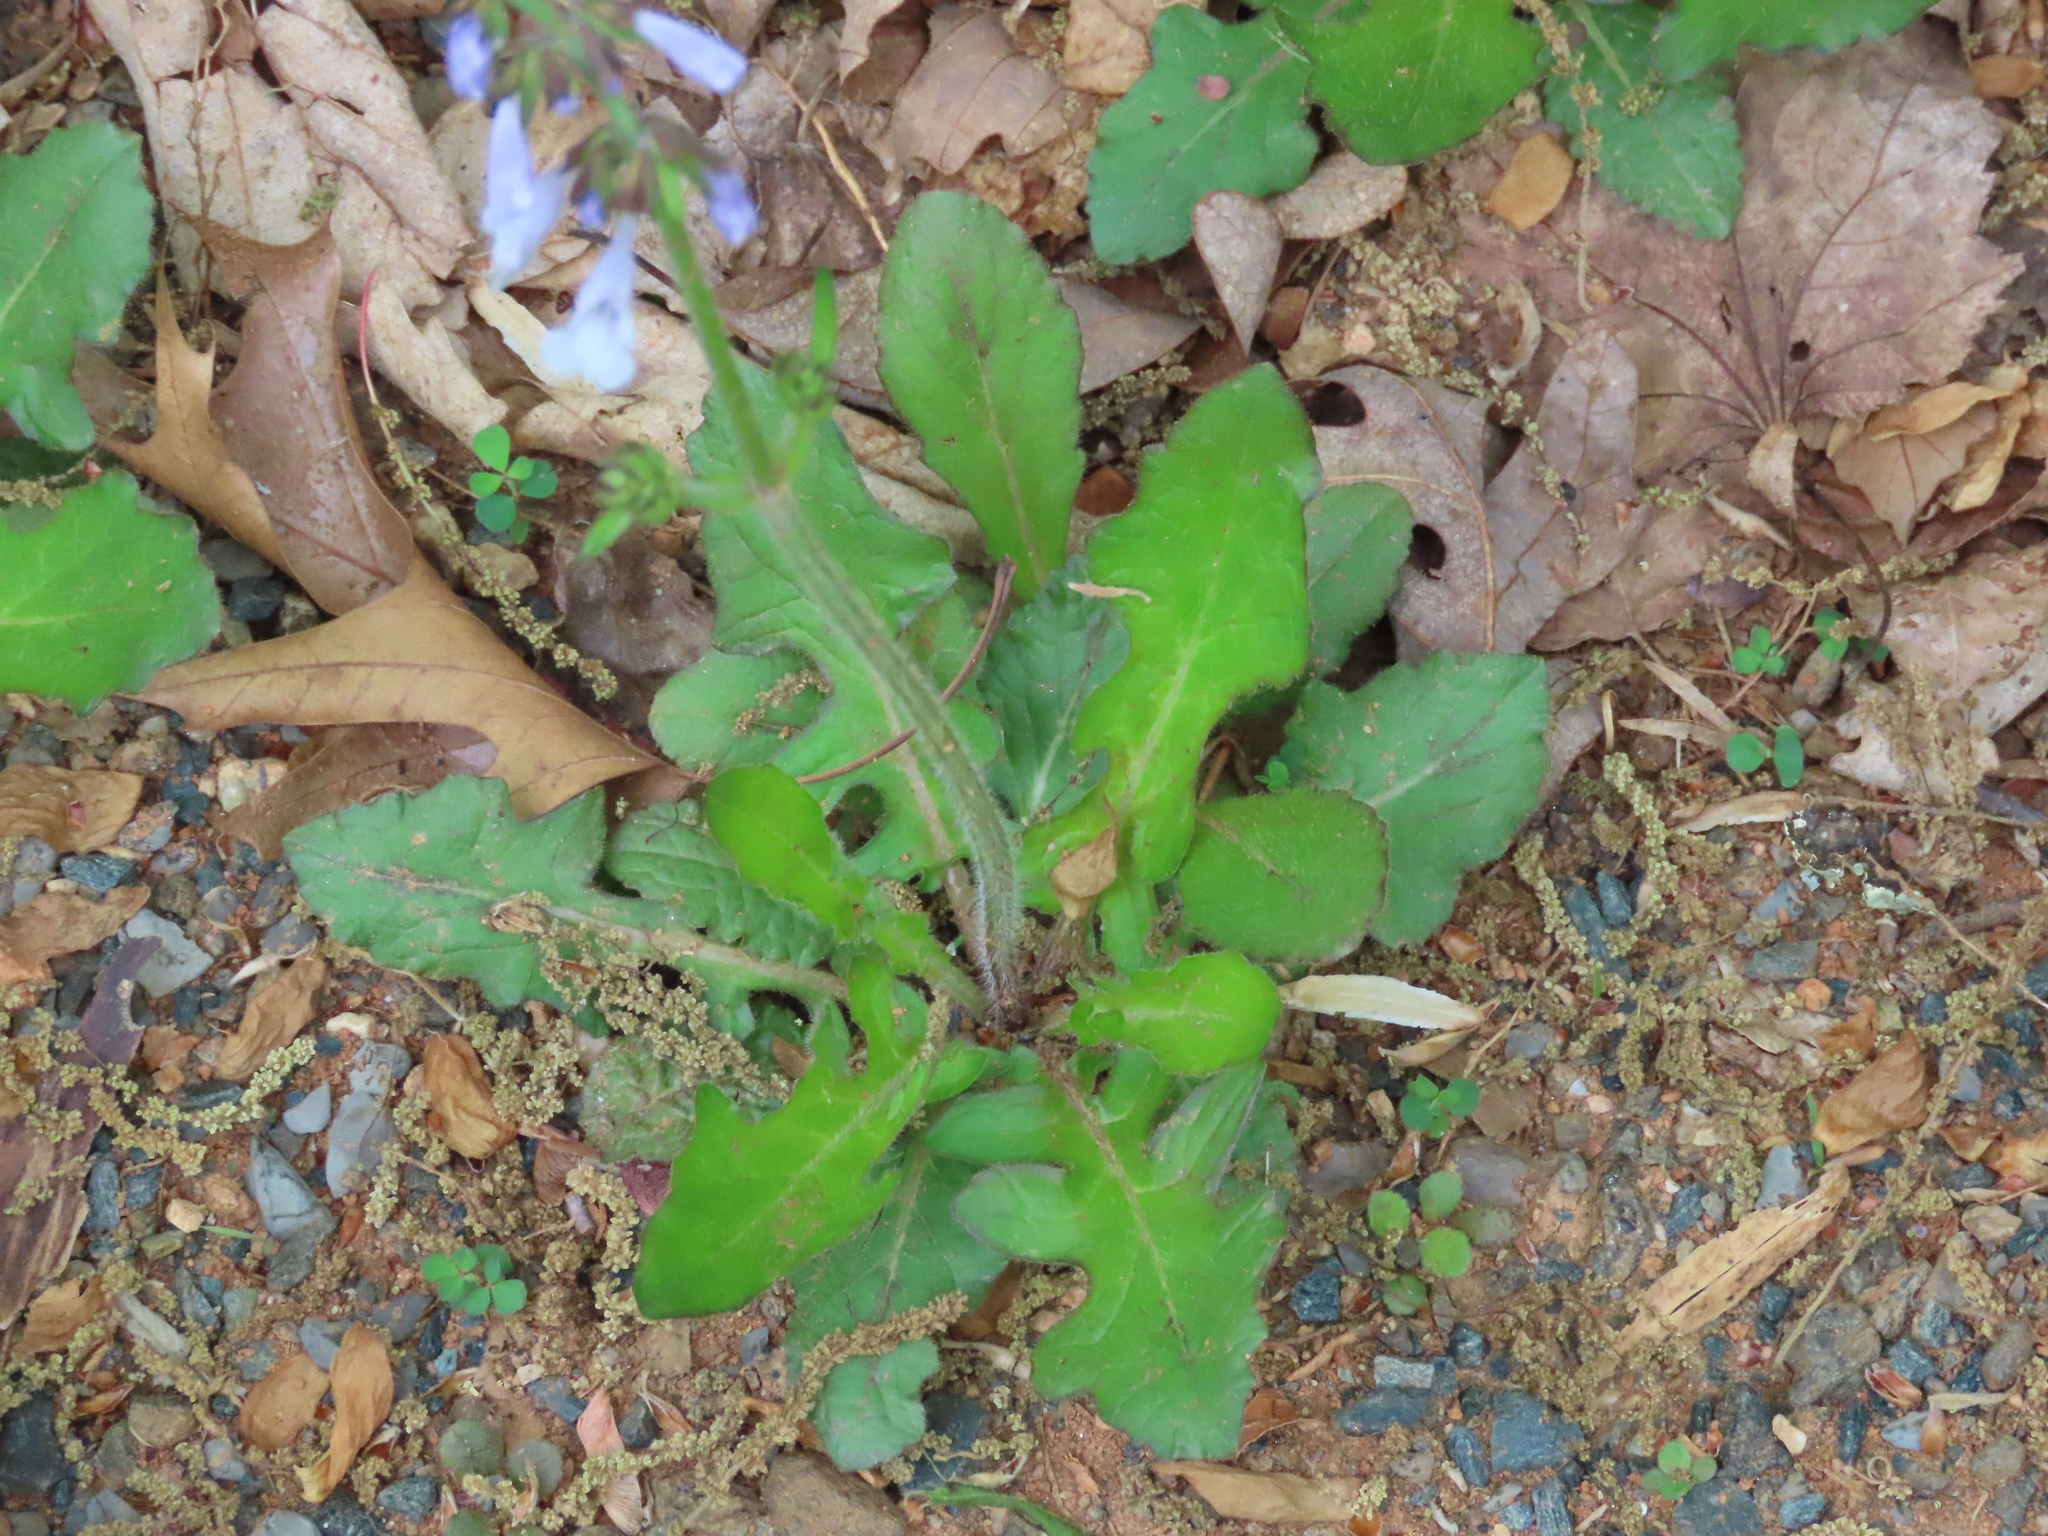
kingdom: Plantae
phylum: Tracheophyta
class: Magnoliopsida
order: Lamiales
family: Lamiaceae
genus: Salvia
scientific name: Salvia lyrata
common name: Cancerweed
